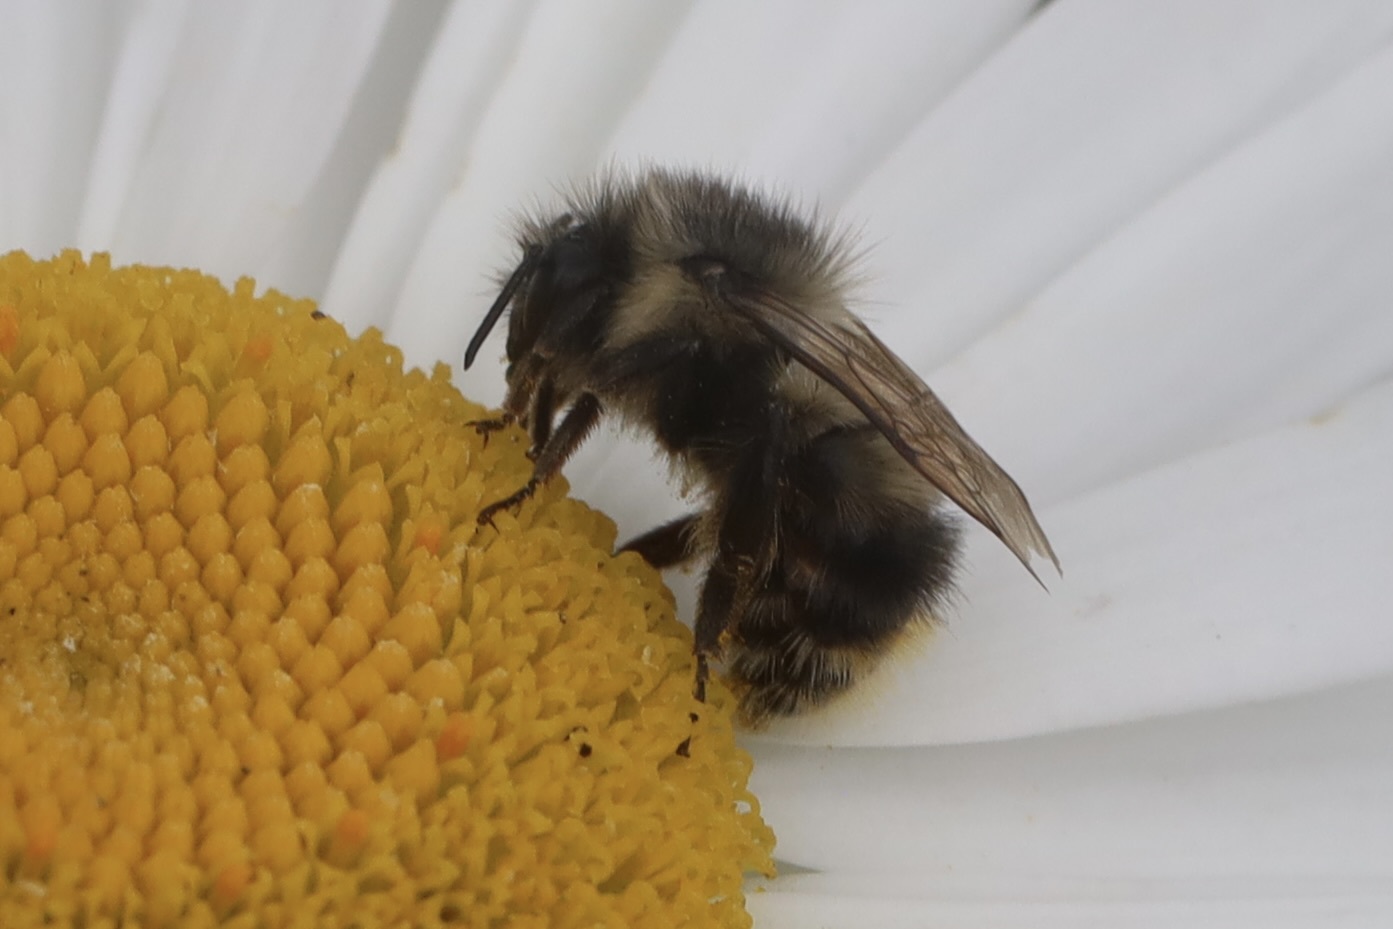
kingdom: Animalia
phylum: Arthropoda
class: Insecta
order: Hymenoptera
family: Apidae
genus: Bombus
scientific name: Bombus mixtus
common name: Fuzzy-horned bumble bee
